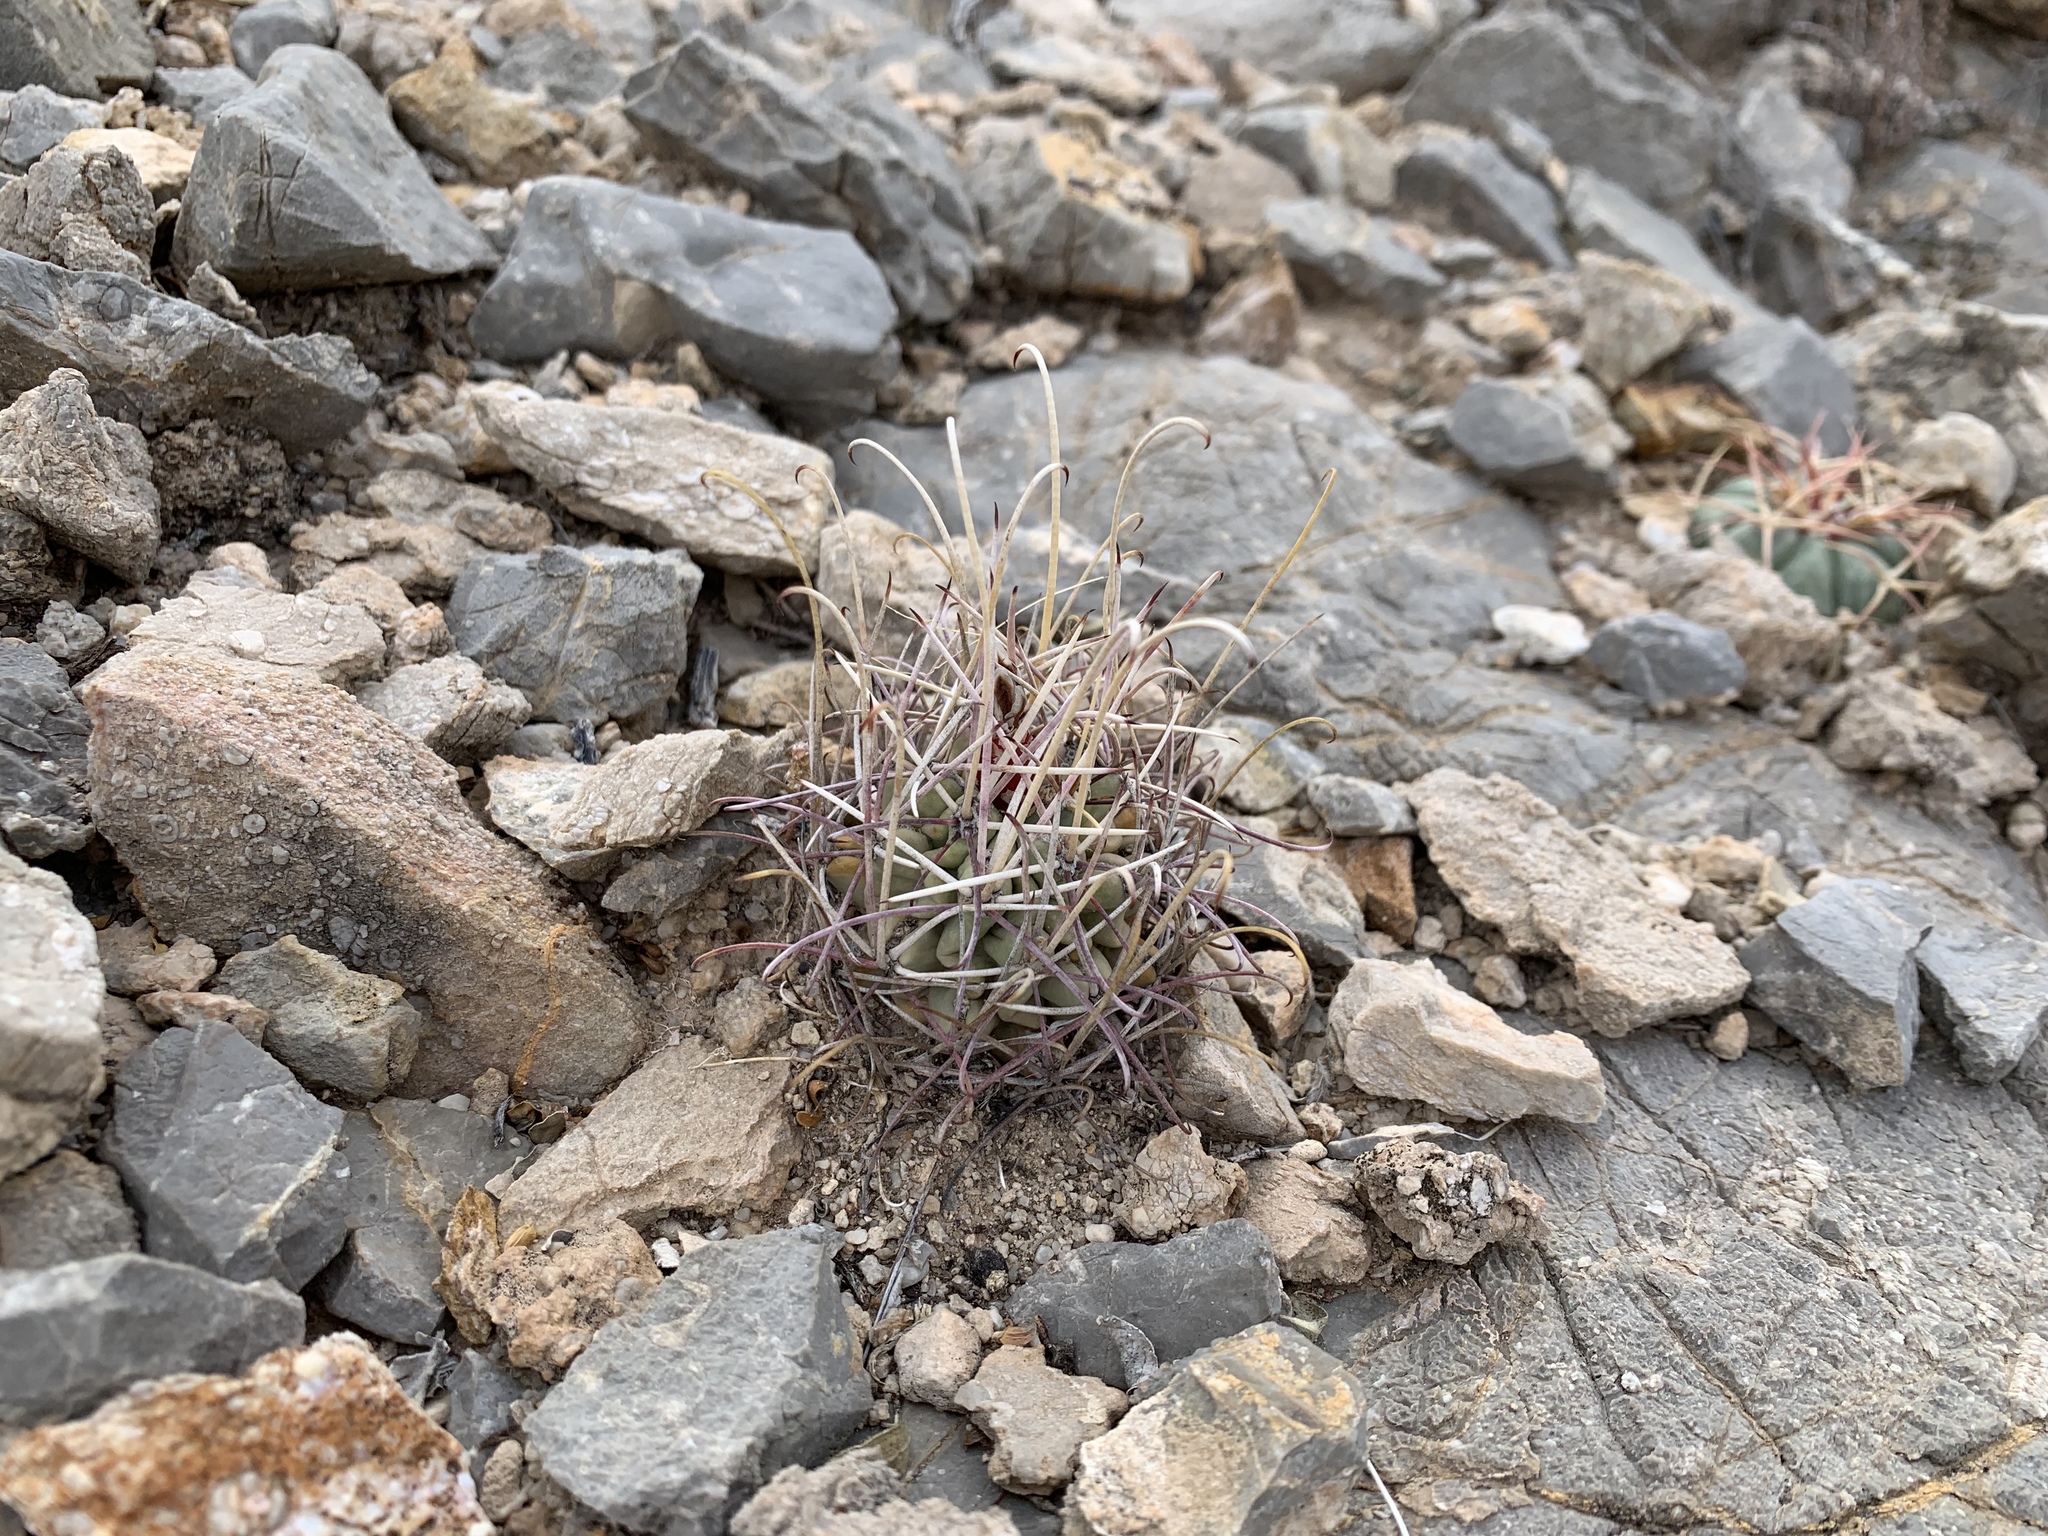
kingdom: Plantae
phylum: Tracheophyta
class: Magnoliopsida
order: Caryophyllales
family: Cactaceae
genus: Ferocactus
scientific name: Ferocactus uncinatus
